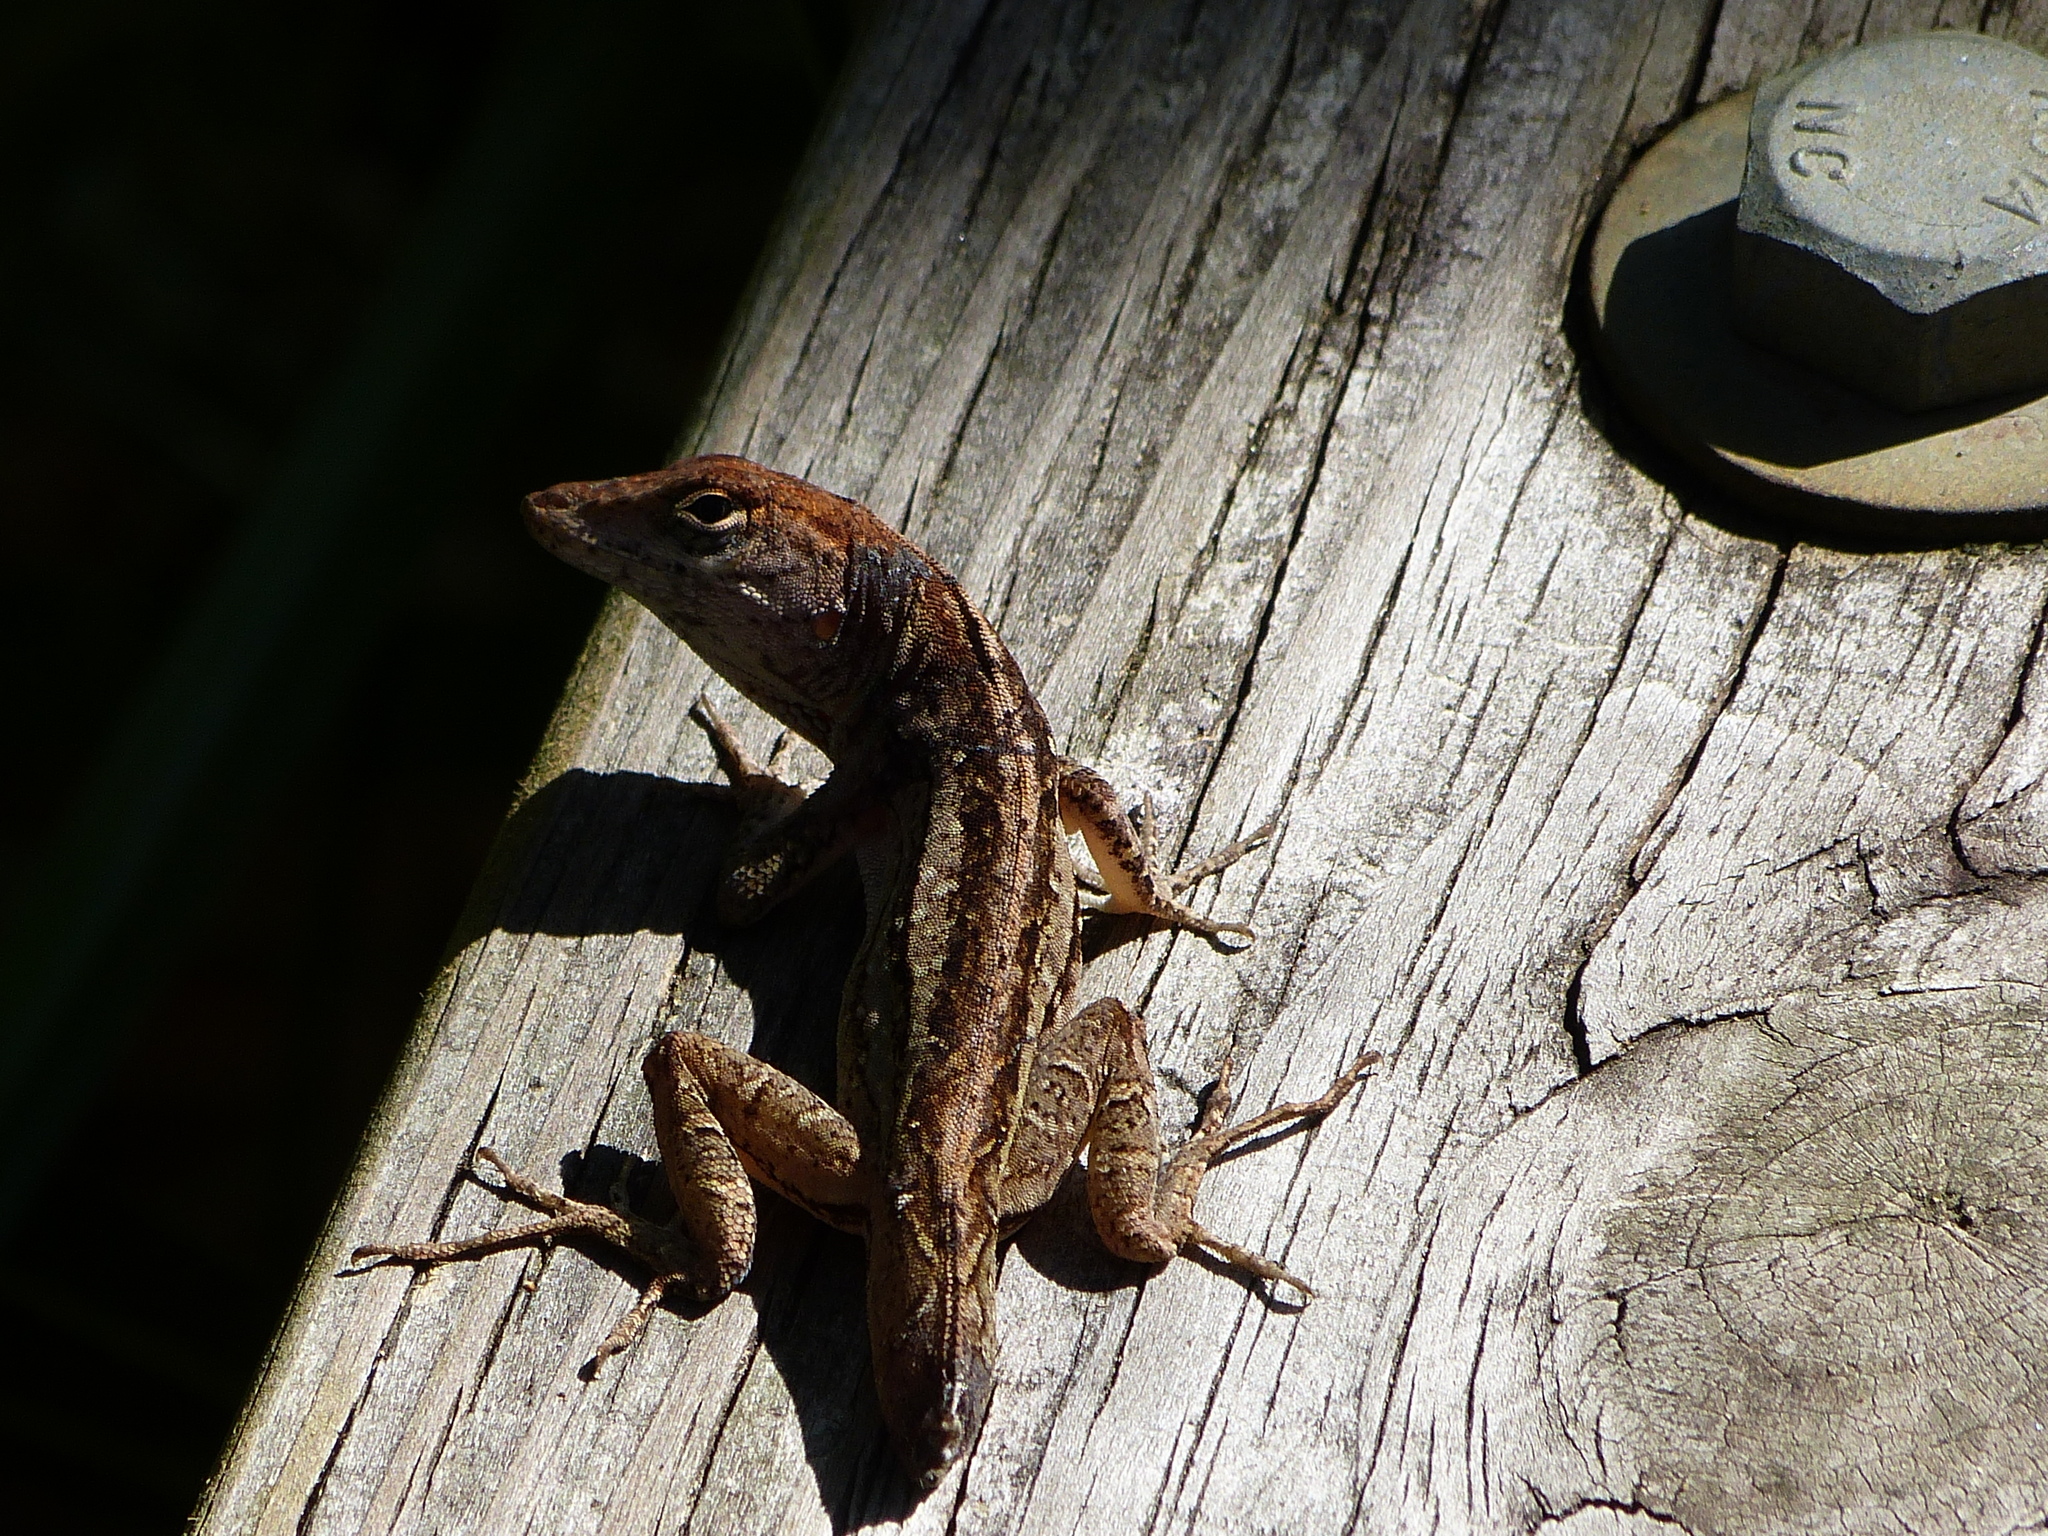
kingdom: Animalia
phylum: Chordata
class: Squamata
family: Dactyloidae
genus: Anolis
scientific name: Anolis sagrei
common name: Brown anole
